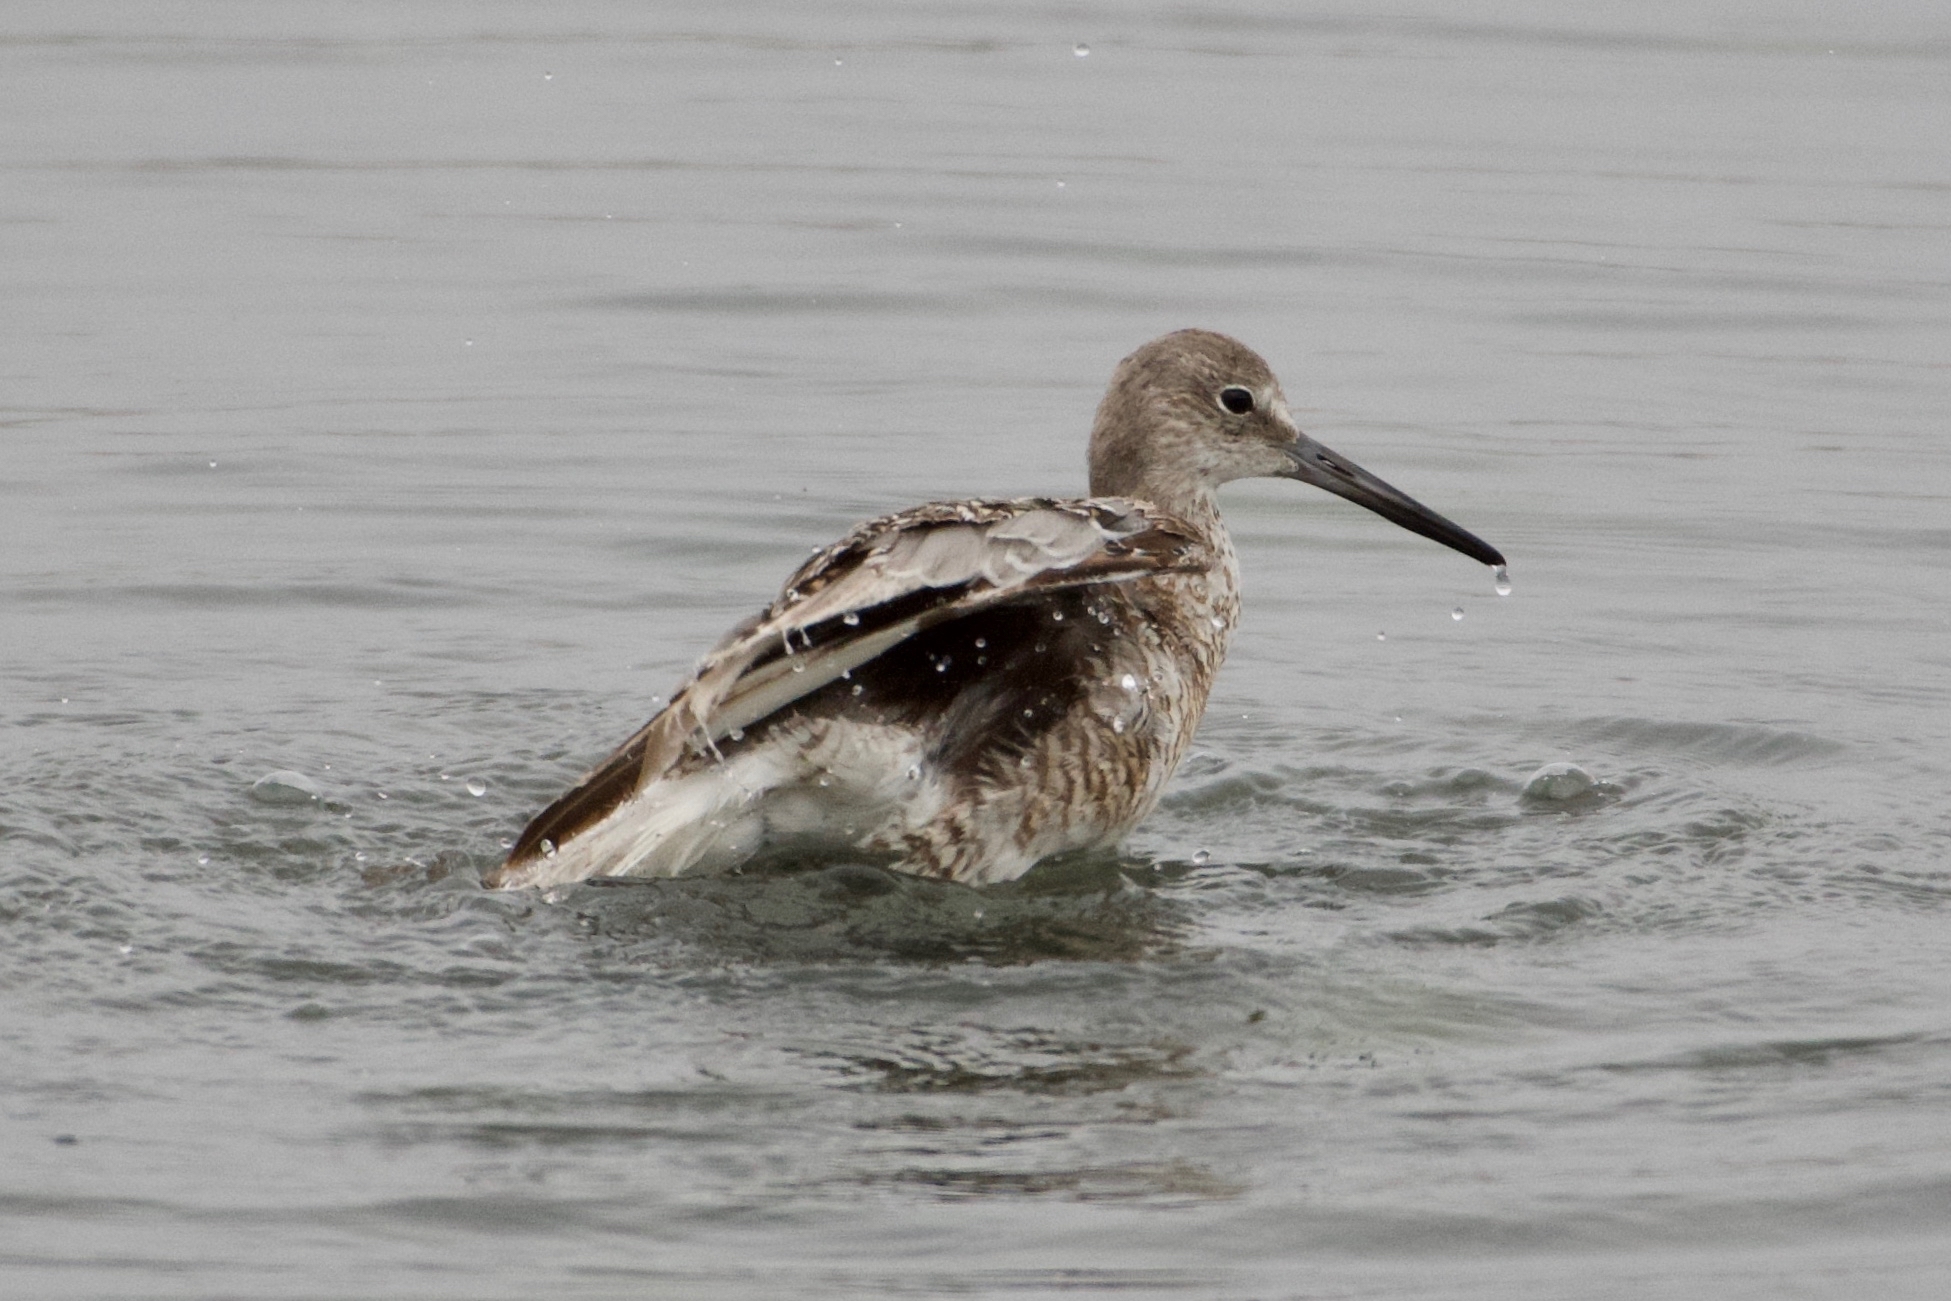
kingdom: Animalia
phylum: Chordata
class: Aves
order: Charadriiformes
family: Scolopacidae
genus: Tringa
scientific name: Tringa semipalmata
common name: Willet
